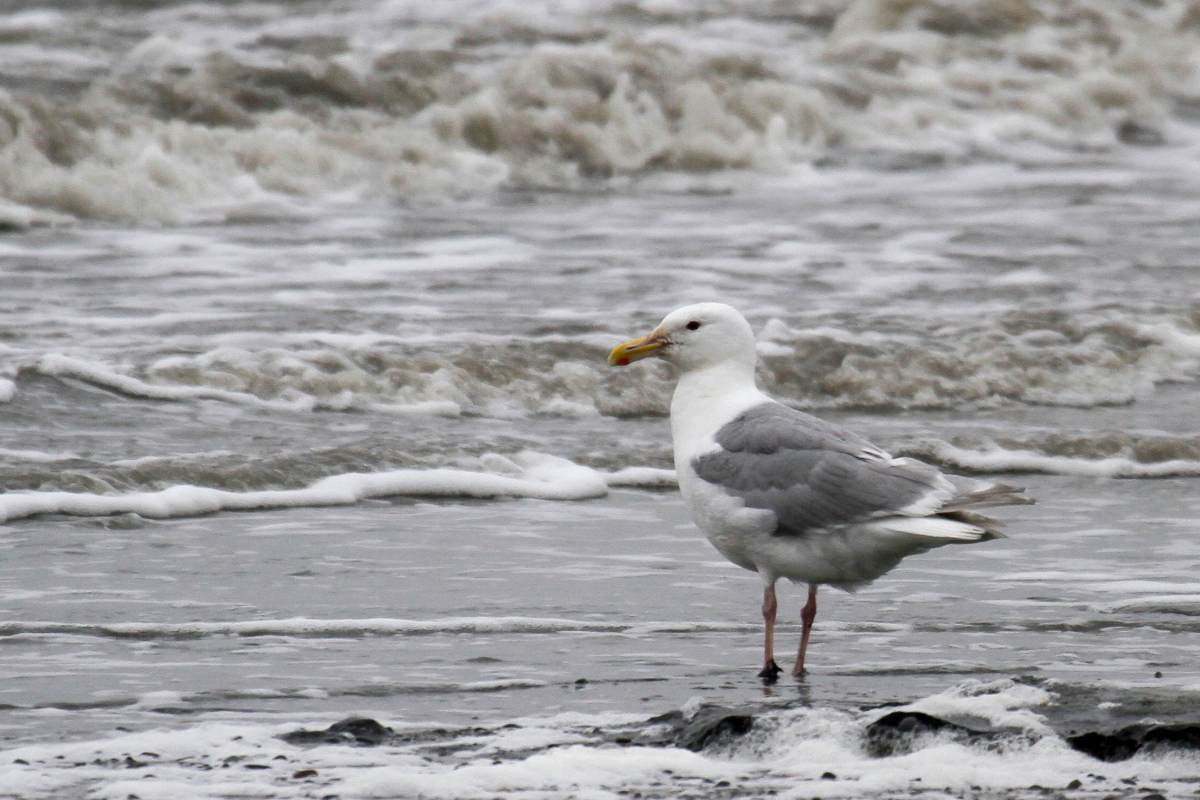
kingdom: Animalia
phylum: Chordata
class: Aves
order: Charadriiformes
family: Laridae
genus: Larus
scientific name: Larus glaucescens
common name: Glaucous-winged gull
